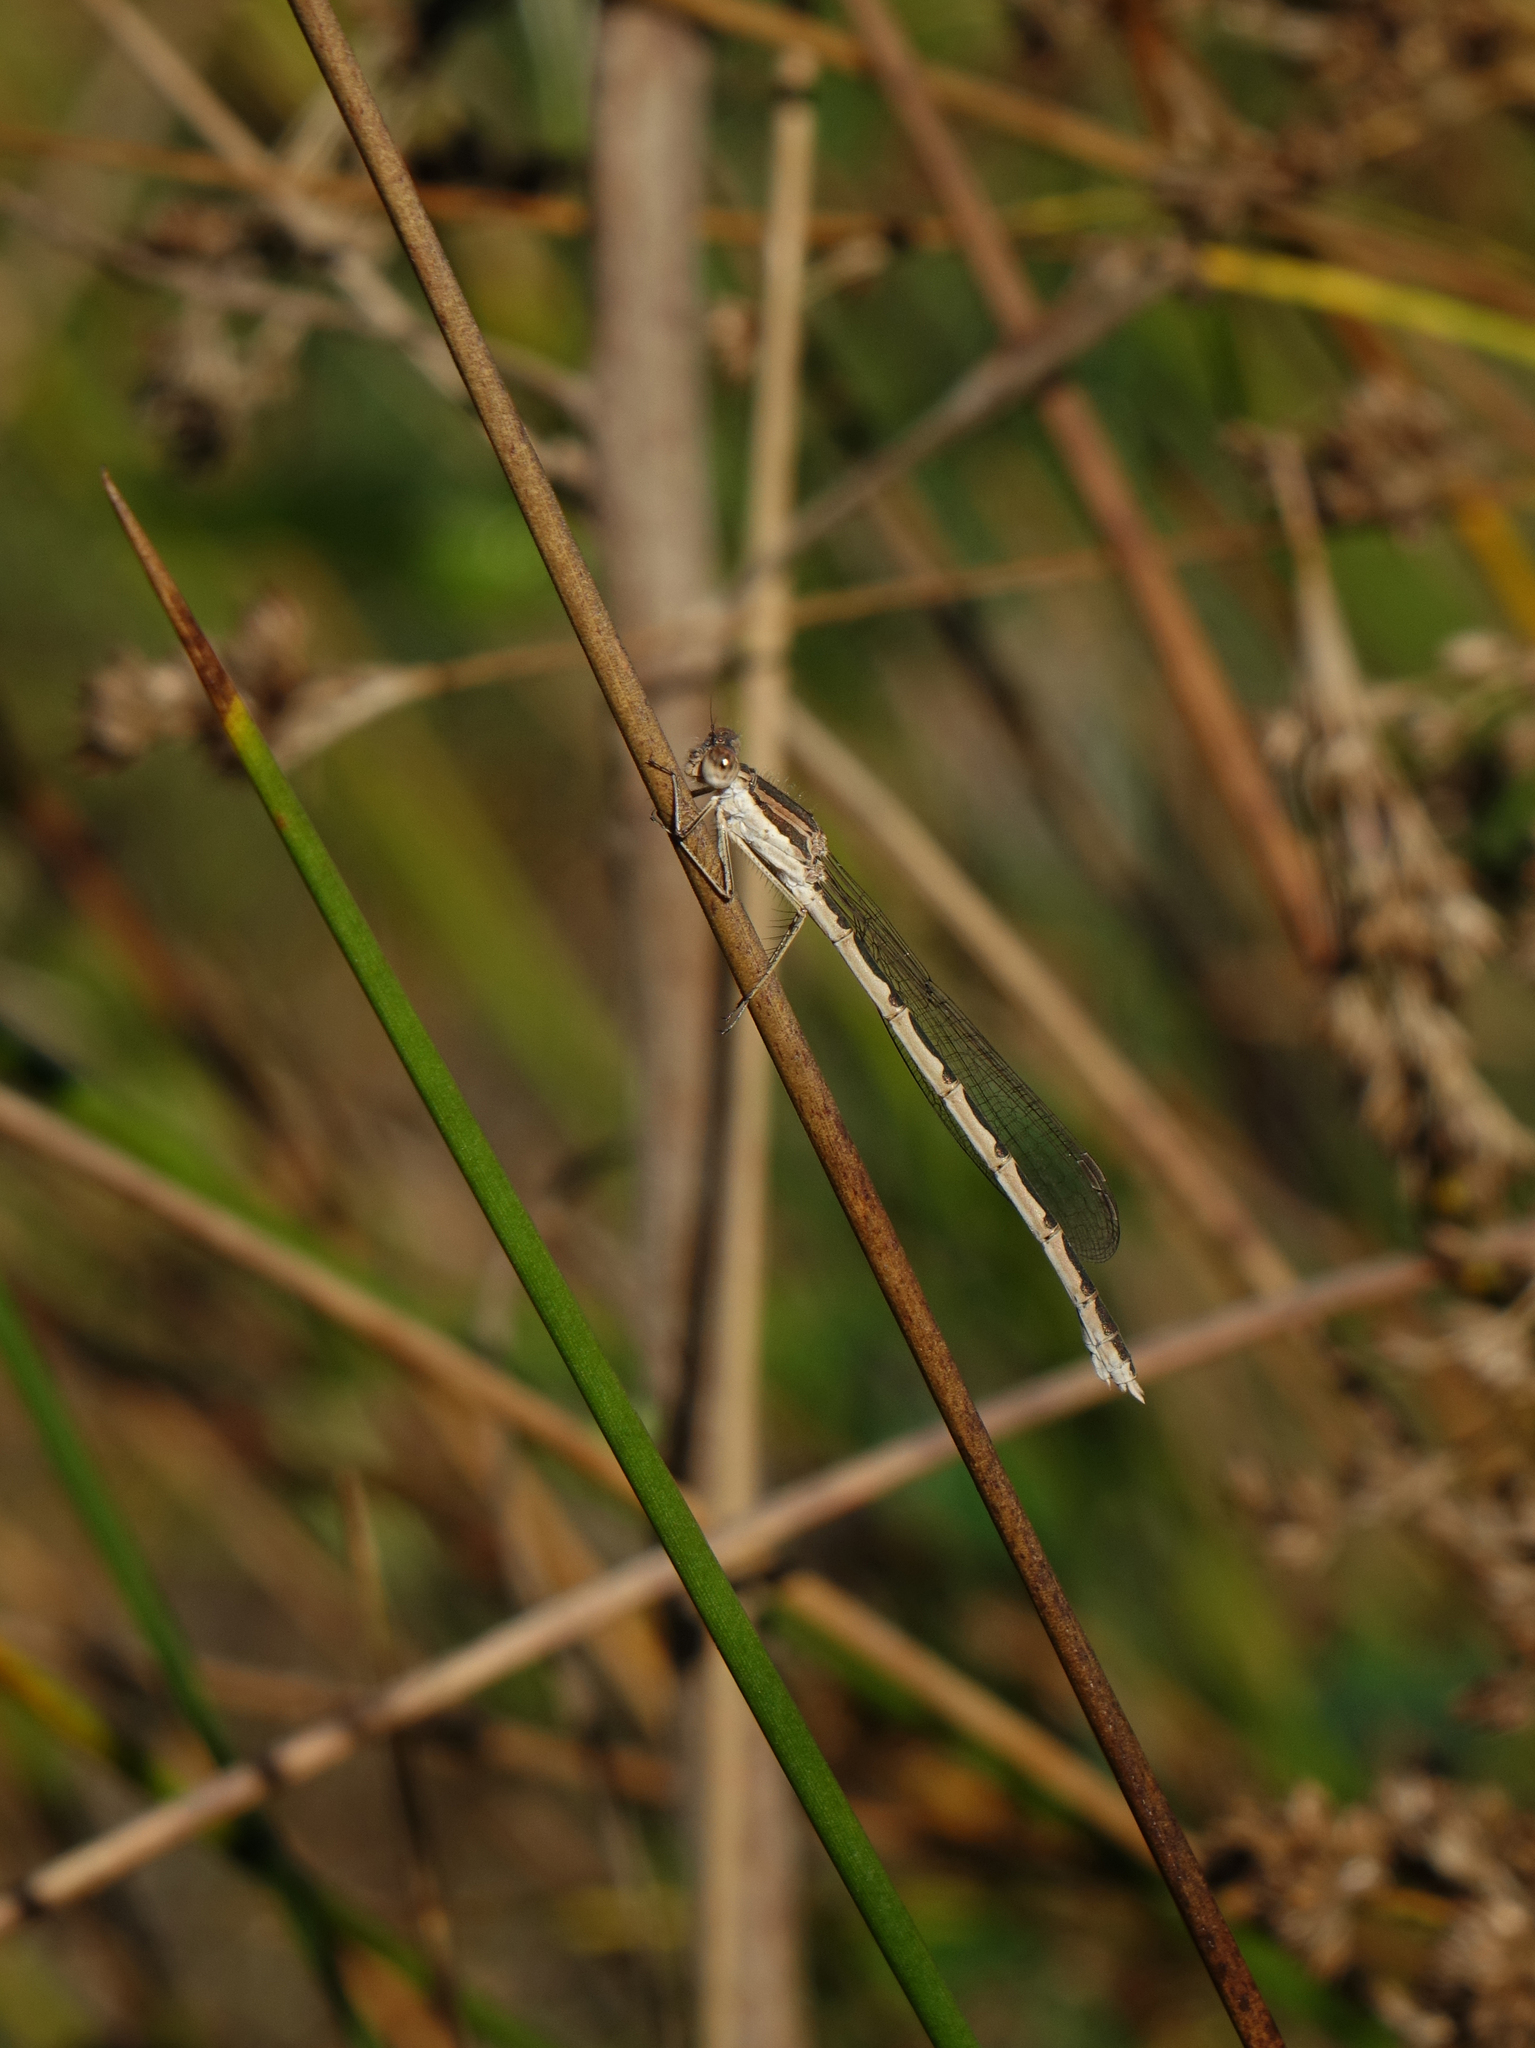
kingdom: Animalia
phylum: Arthropoda
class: Insecta
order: Odonata
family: Lestidae
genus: Sympecma
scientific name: Sympecma fusca
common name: Common winter damsel
